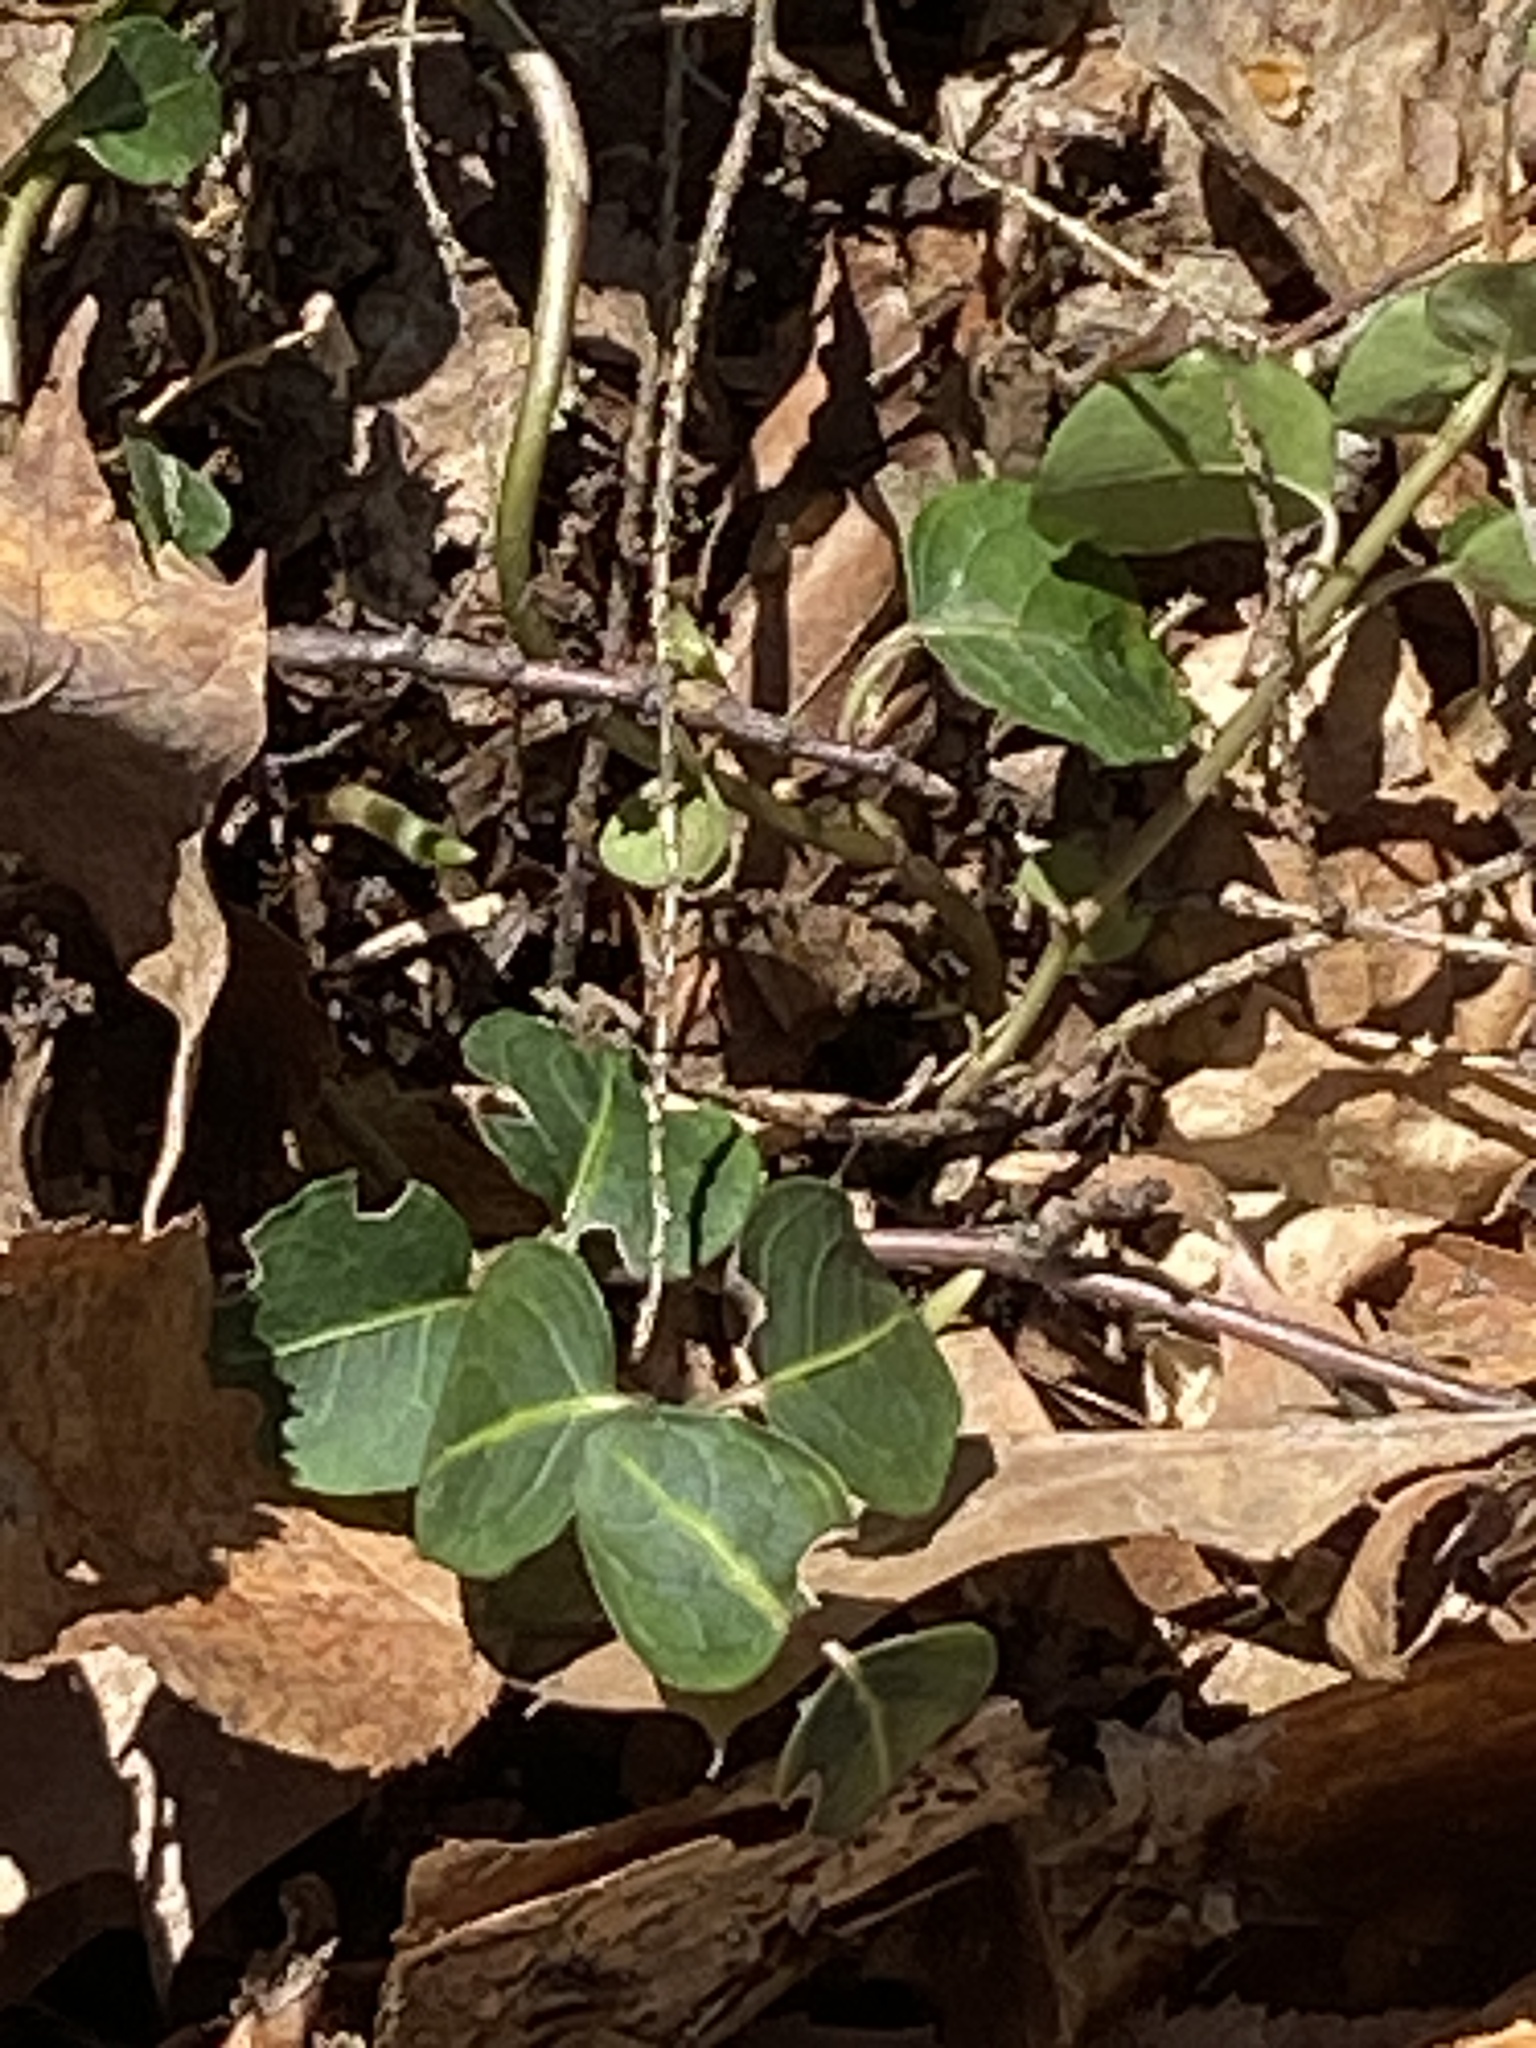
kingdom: Plantae
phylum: Tracheophyta
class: Magnoliopsida
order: Gentianales
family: Rubiaceae
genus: Mitchella
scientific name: Mitchella repens
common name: Partridge-berry
